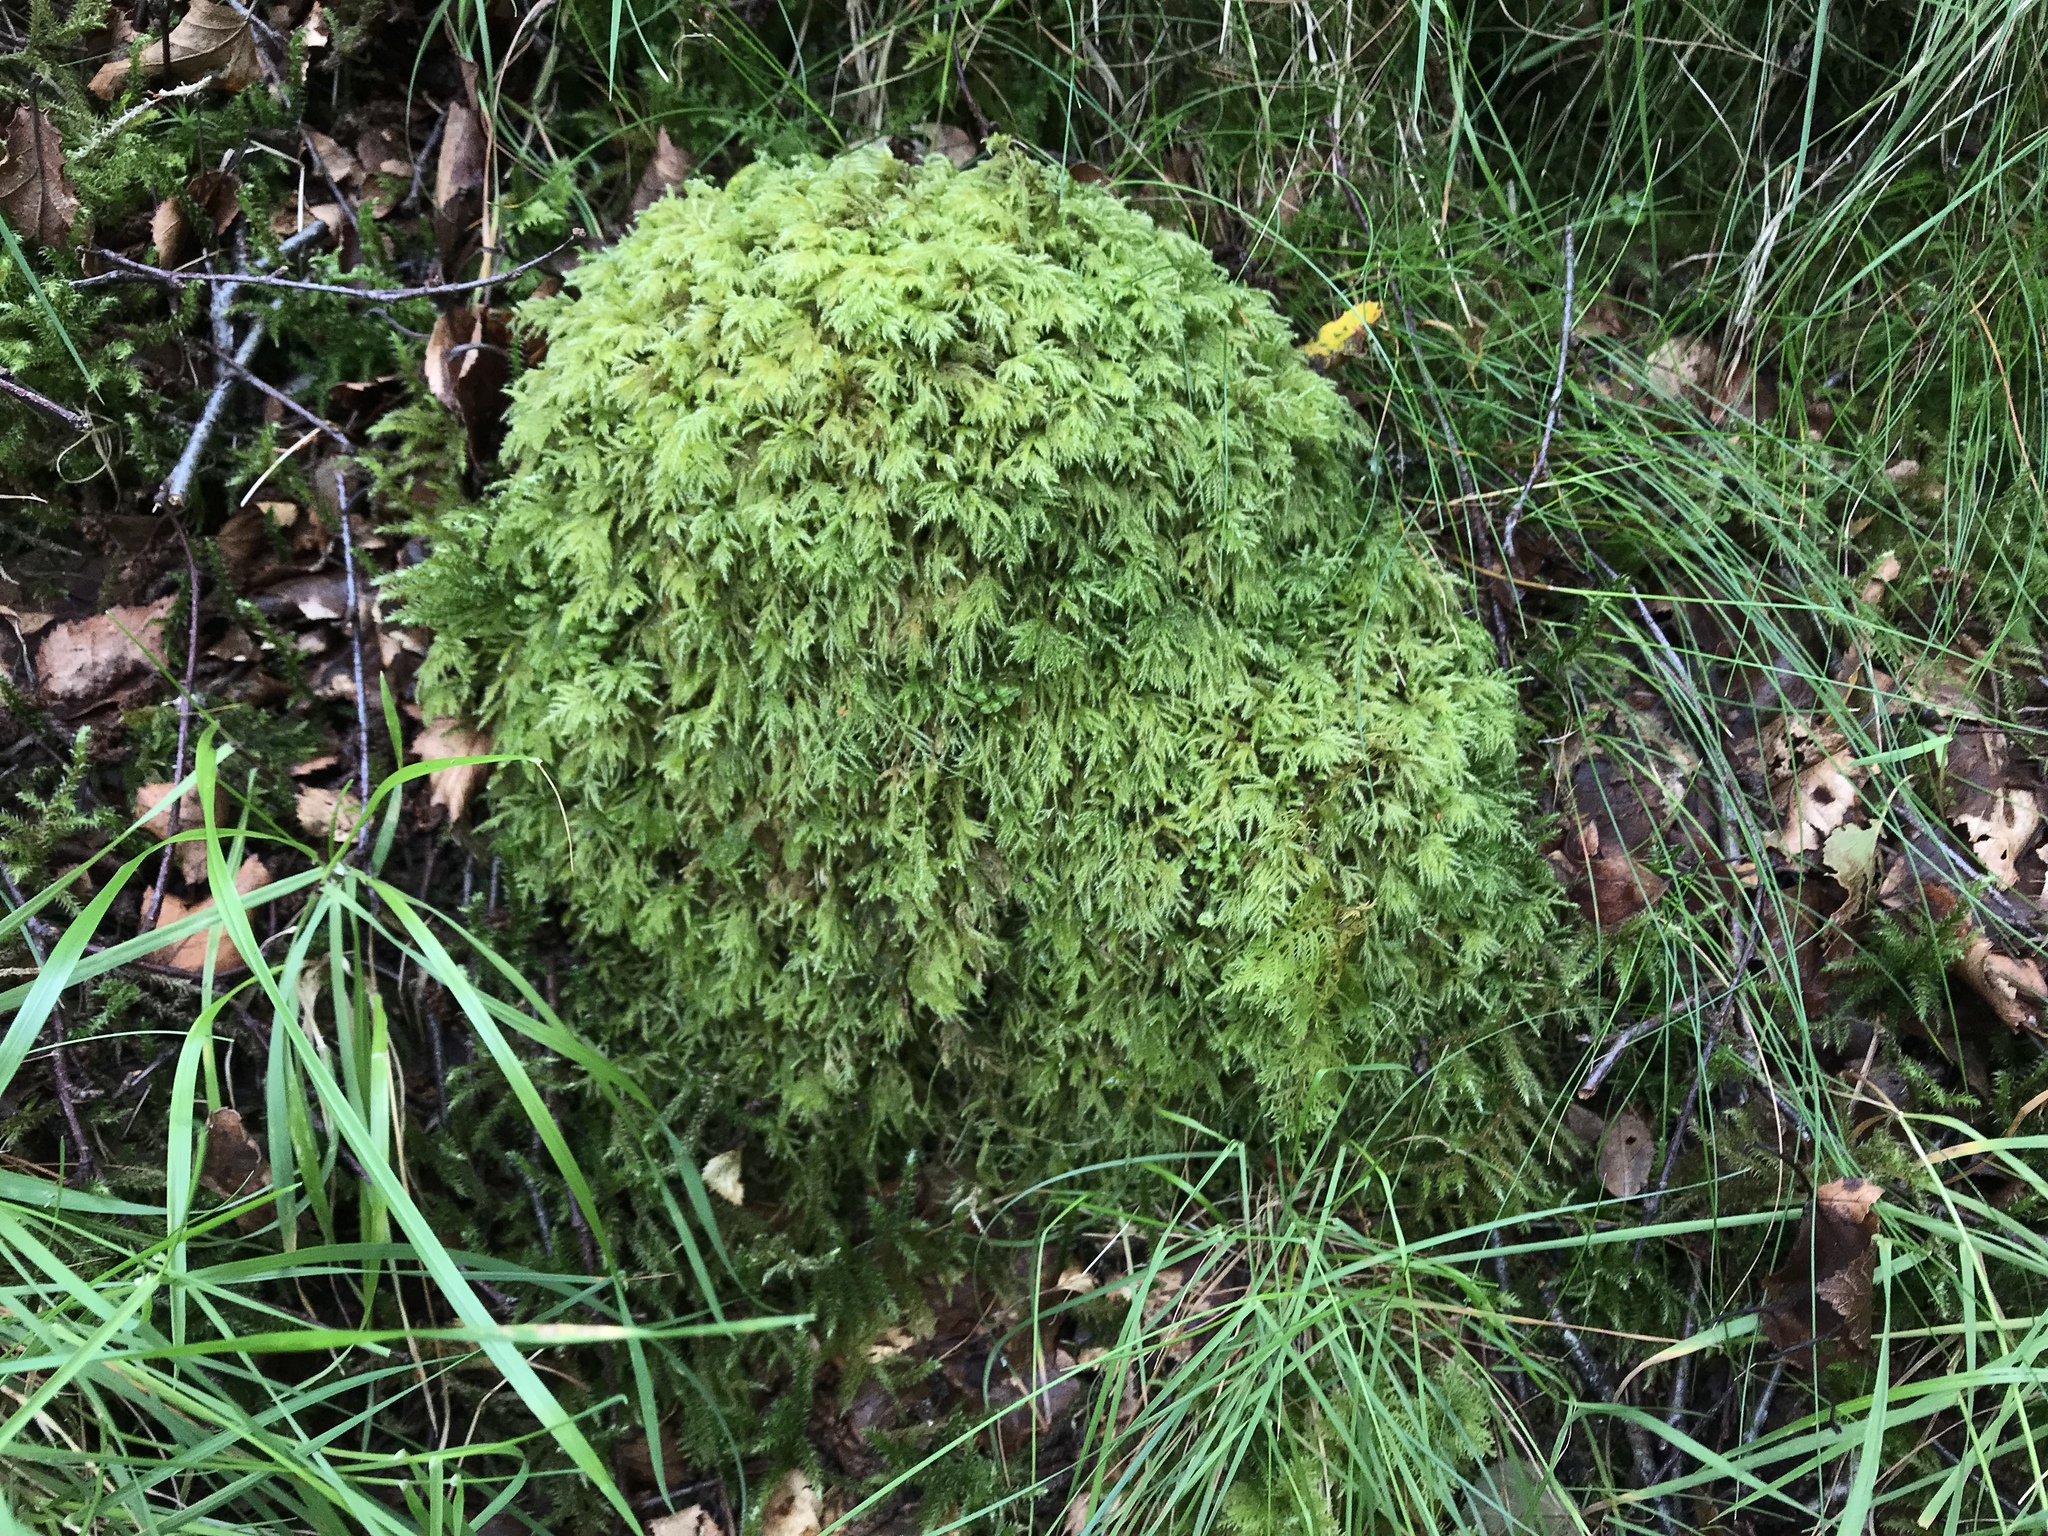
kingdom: Plantae
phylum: Bryophyta
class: Bryopsida
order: Hypnales
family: Lembophyllaceae
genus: Pseudisothecium
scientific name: Pseudisothecium myosuroides
